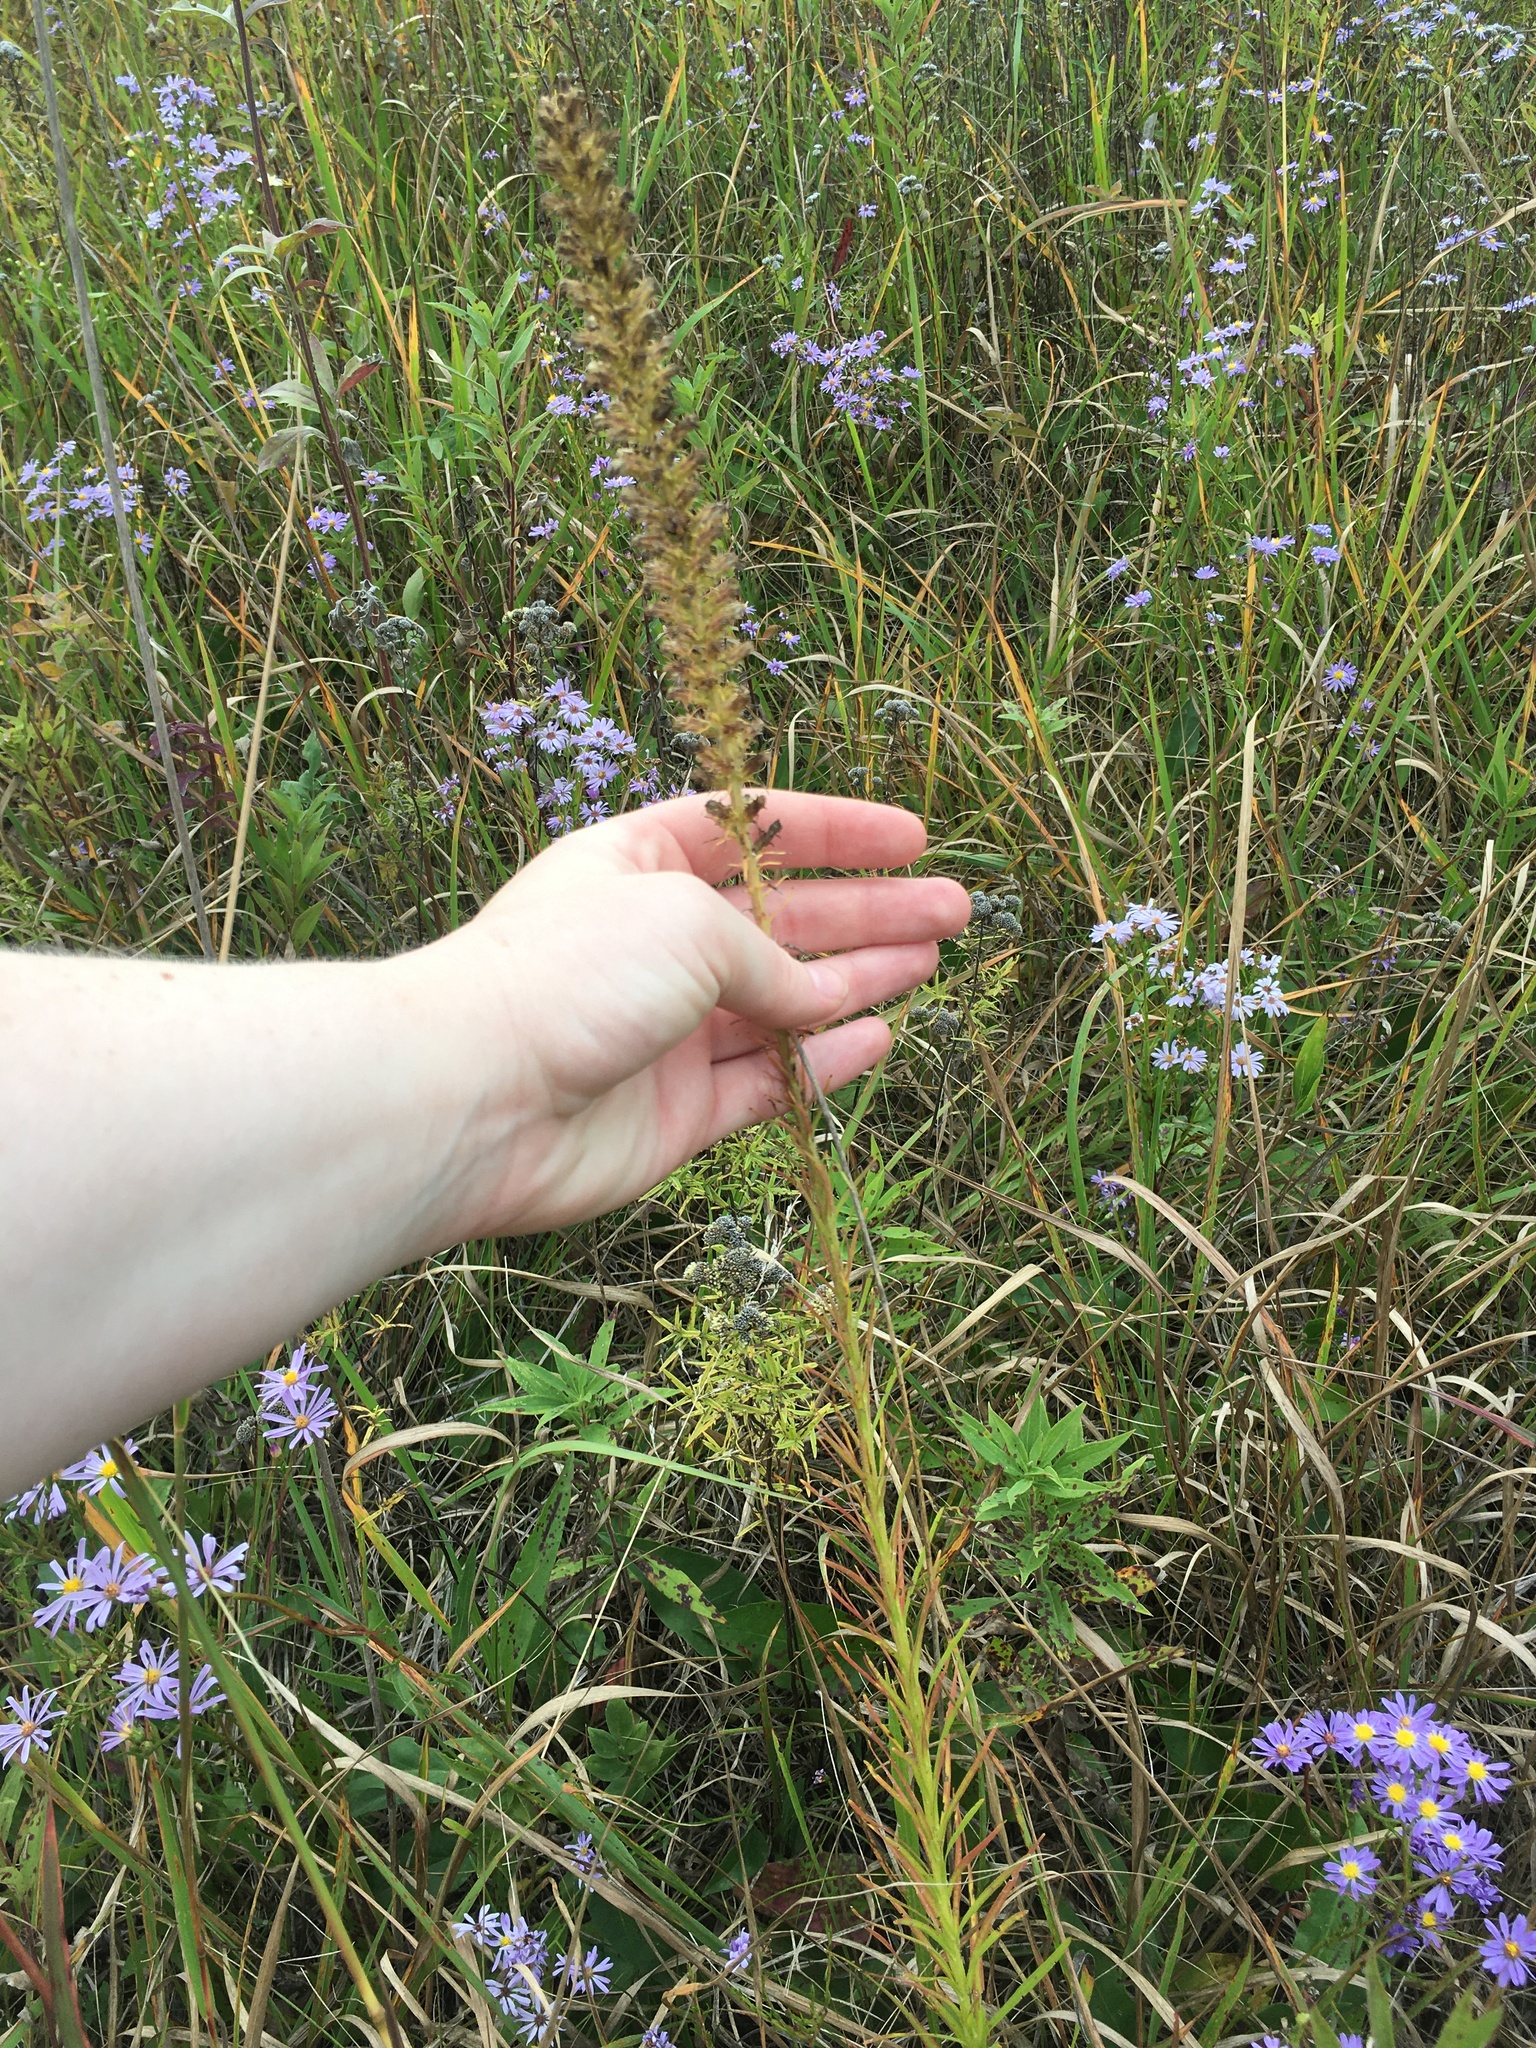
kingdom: Plantae
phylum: Tracheophyta
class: Magnoliopsida
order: Asterales
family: Asteraceae
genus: Liatris
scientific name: Liatris pycnostachya
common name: Cattail gayfeather
